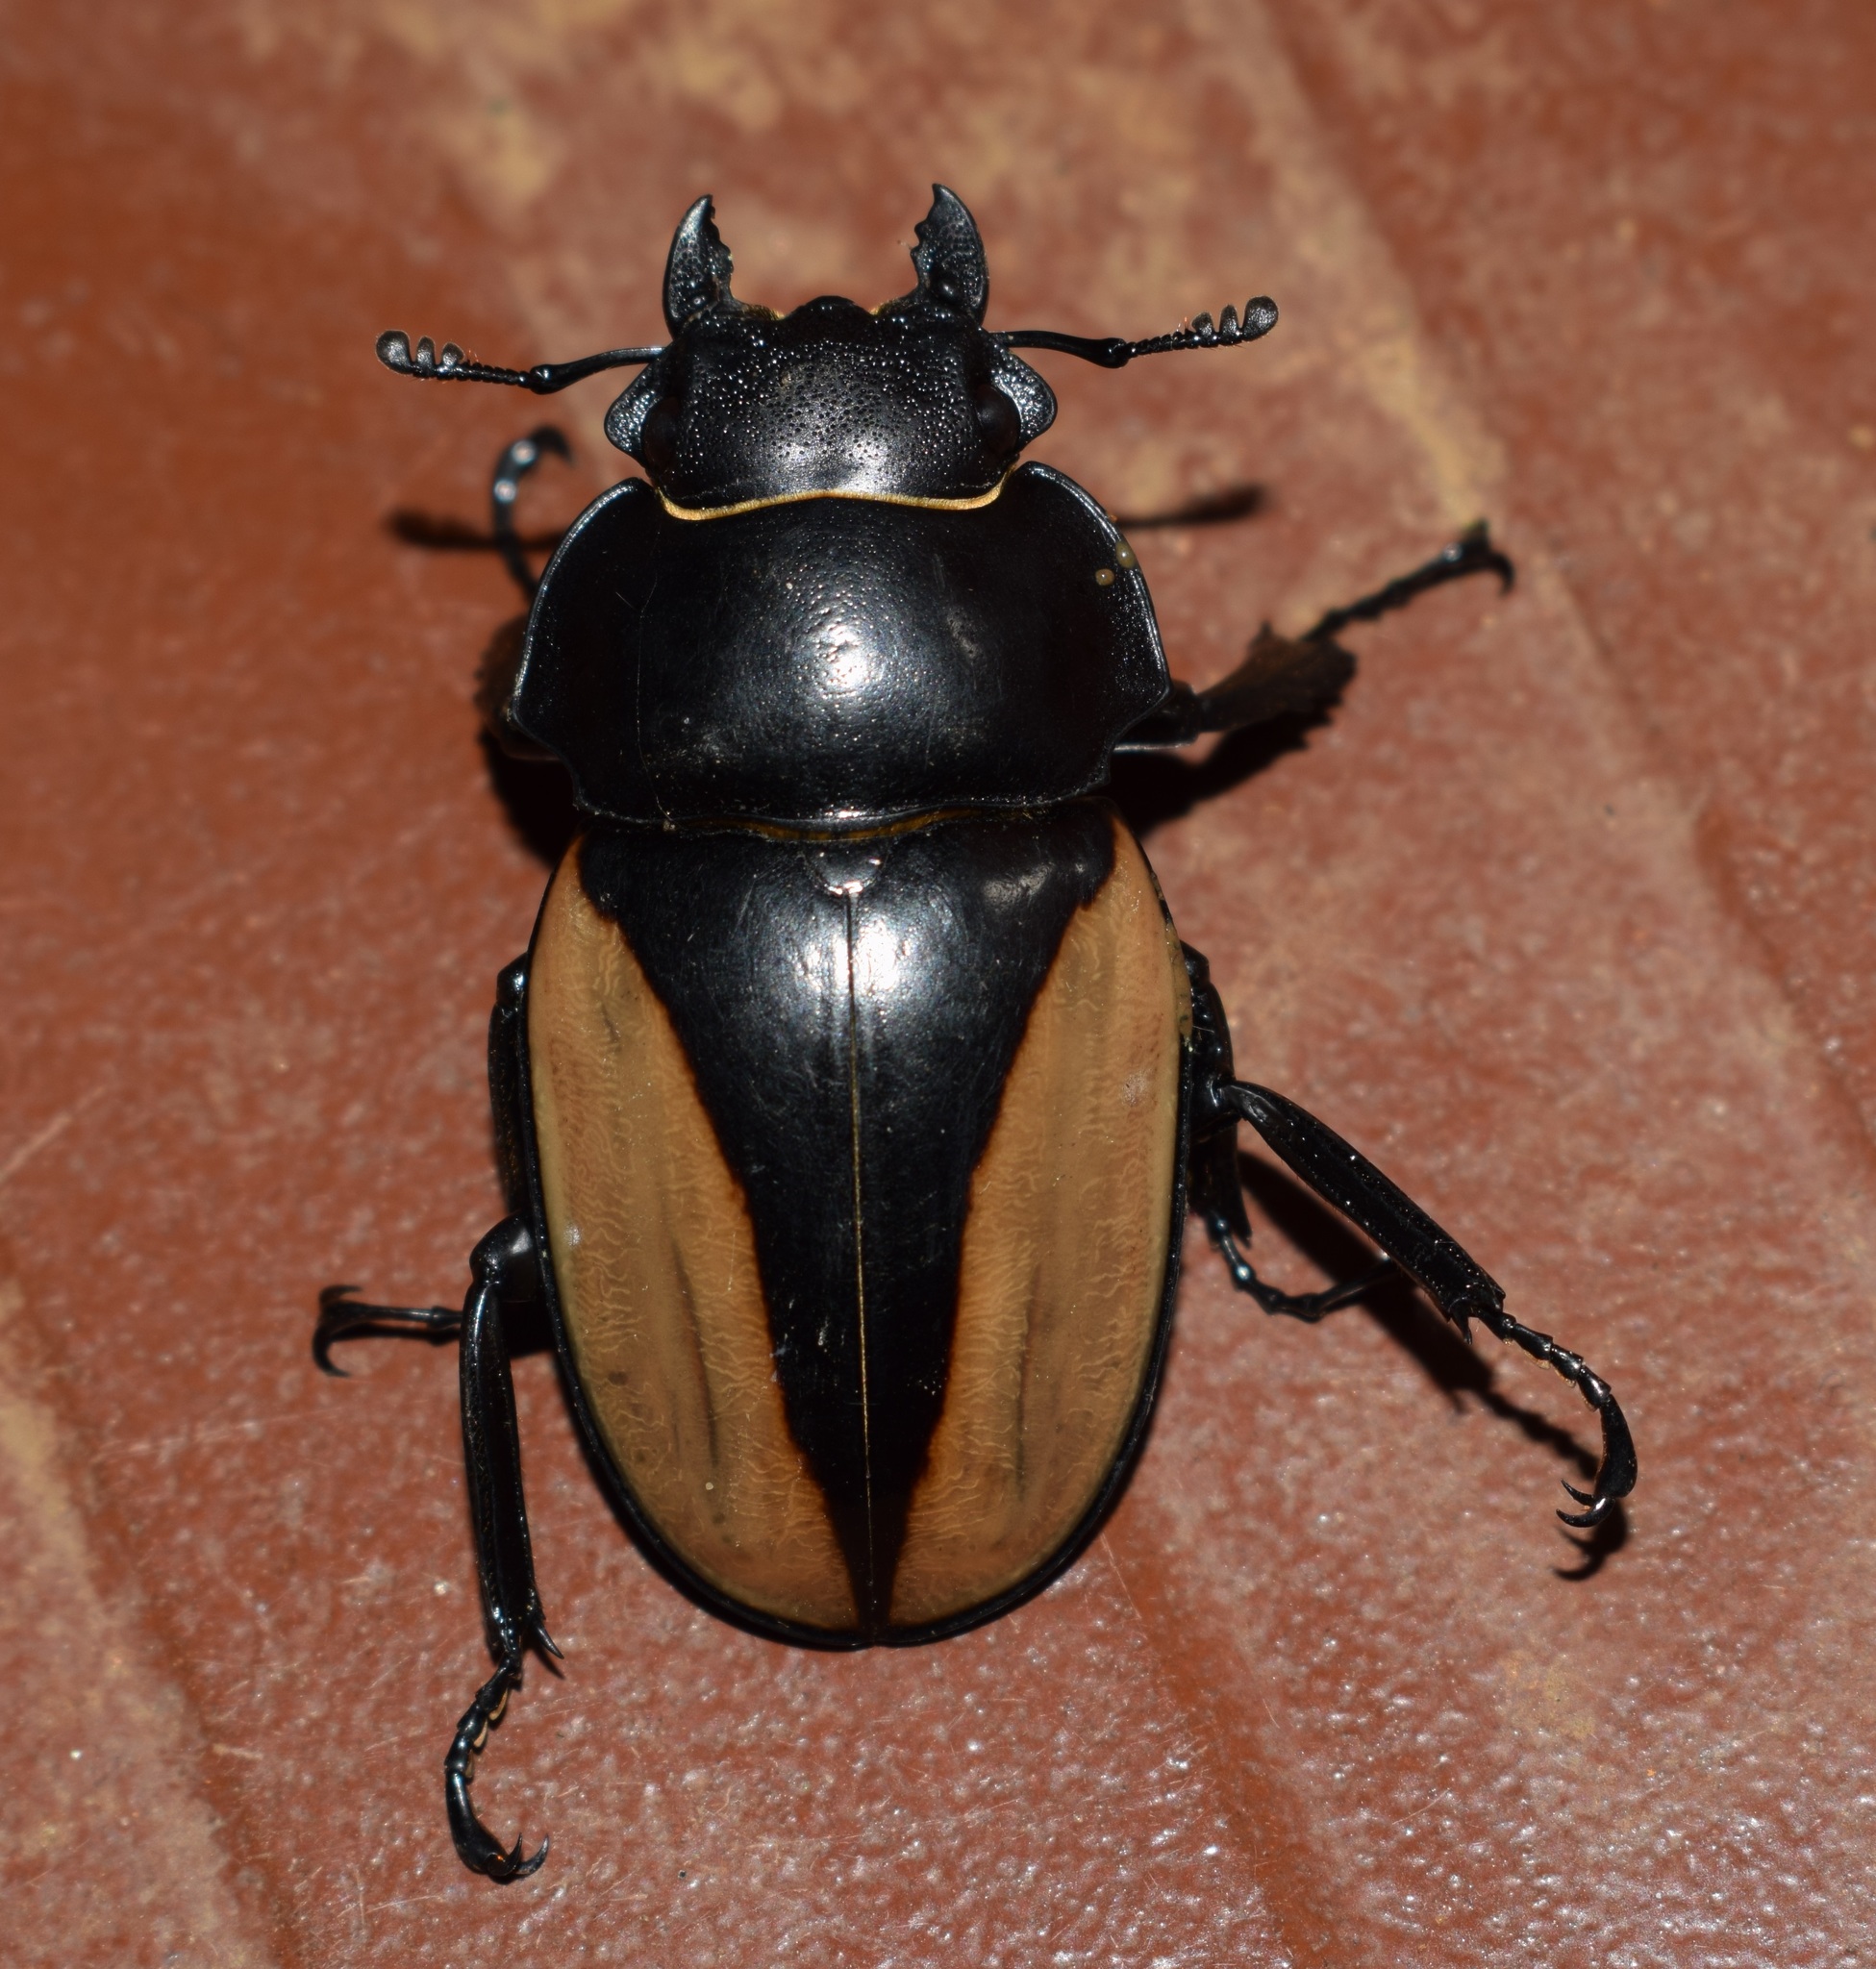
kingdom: Animalia
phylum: Arthropoda
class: Insecta
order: Coleoptera
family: Lucanidae
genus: Odontolabis
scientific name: Odontolabis delessertii
